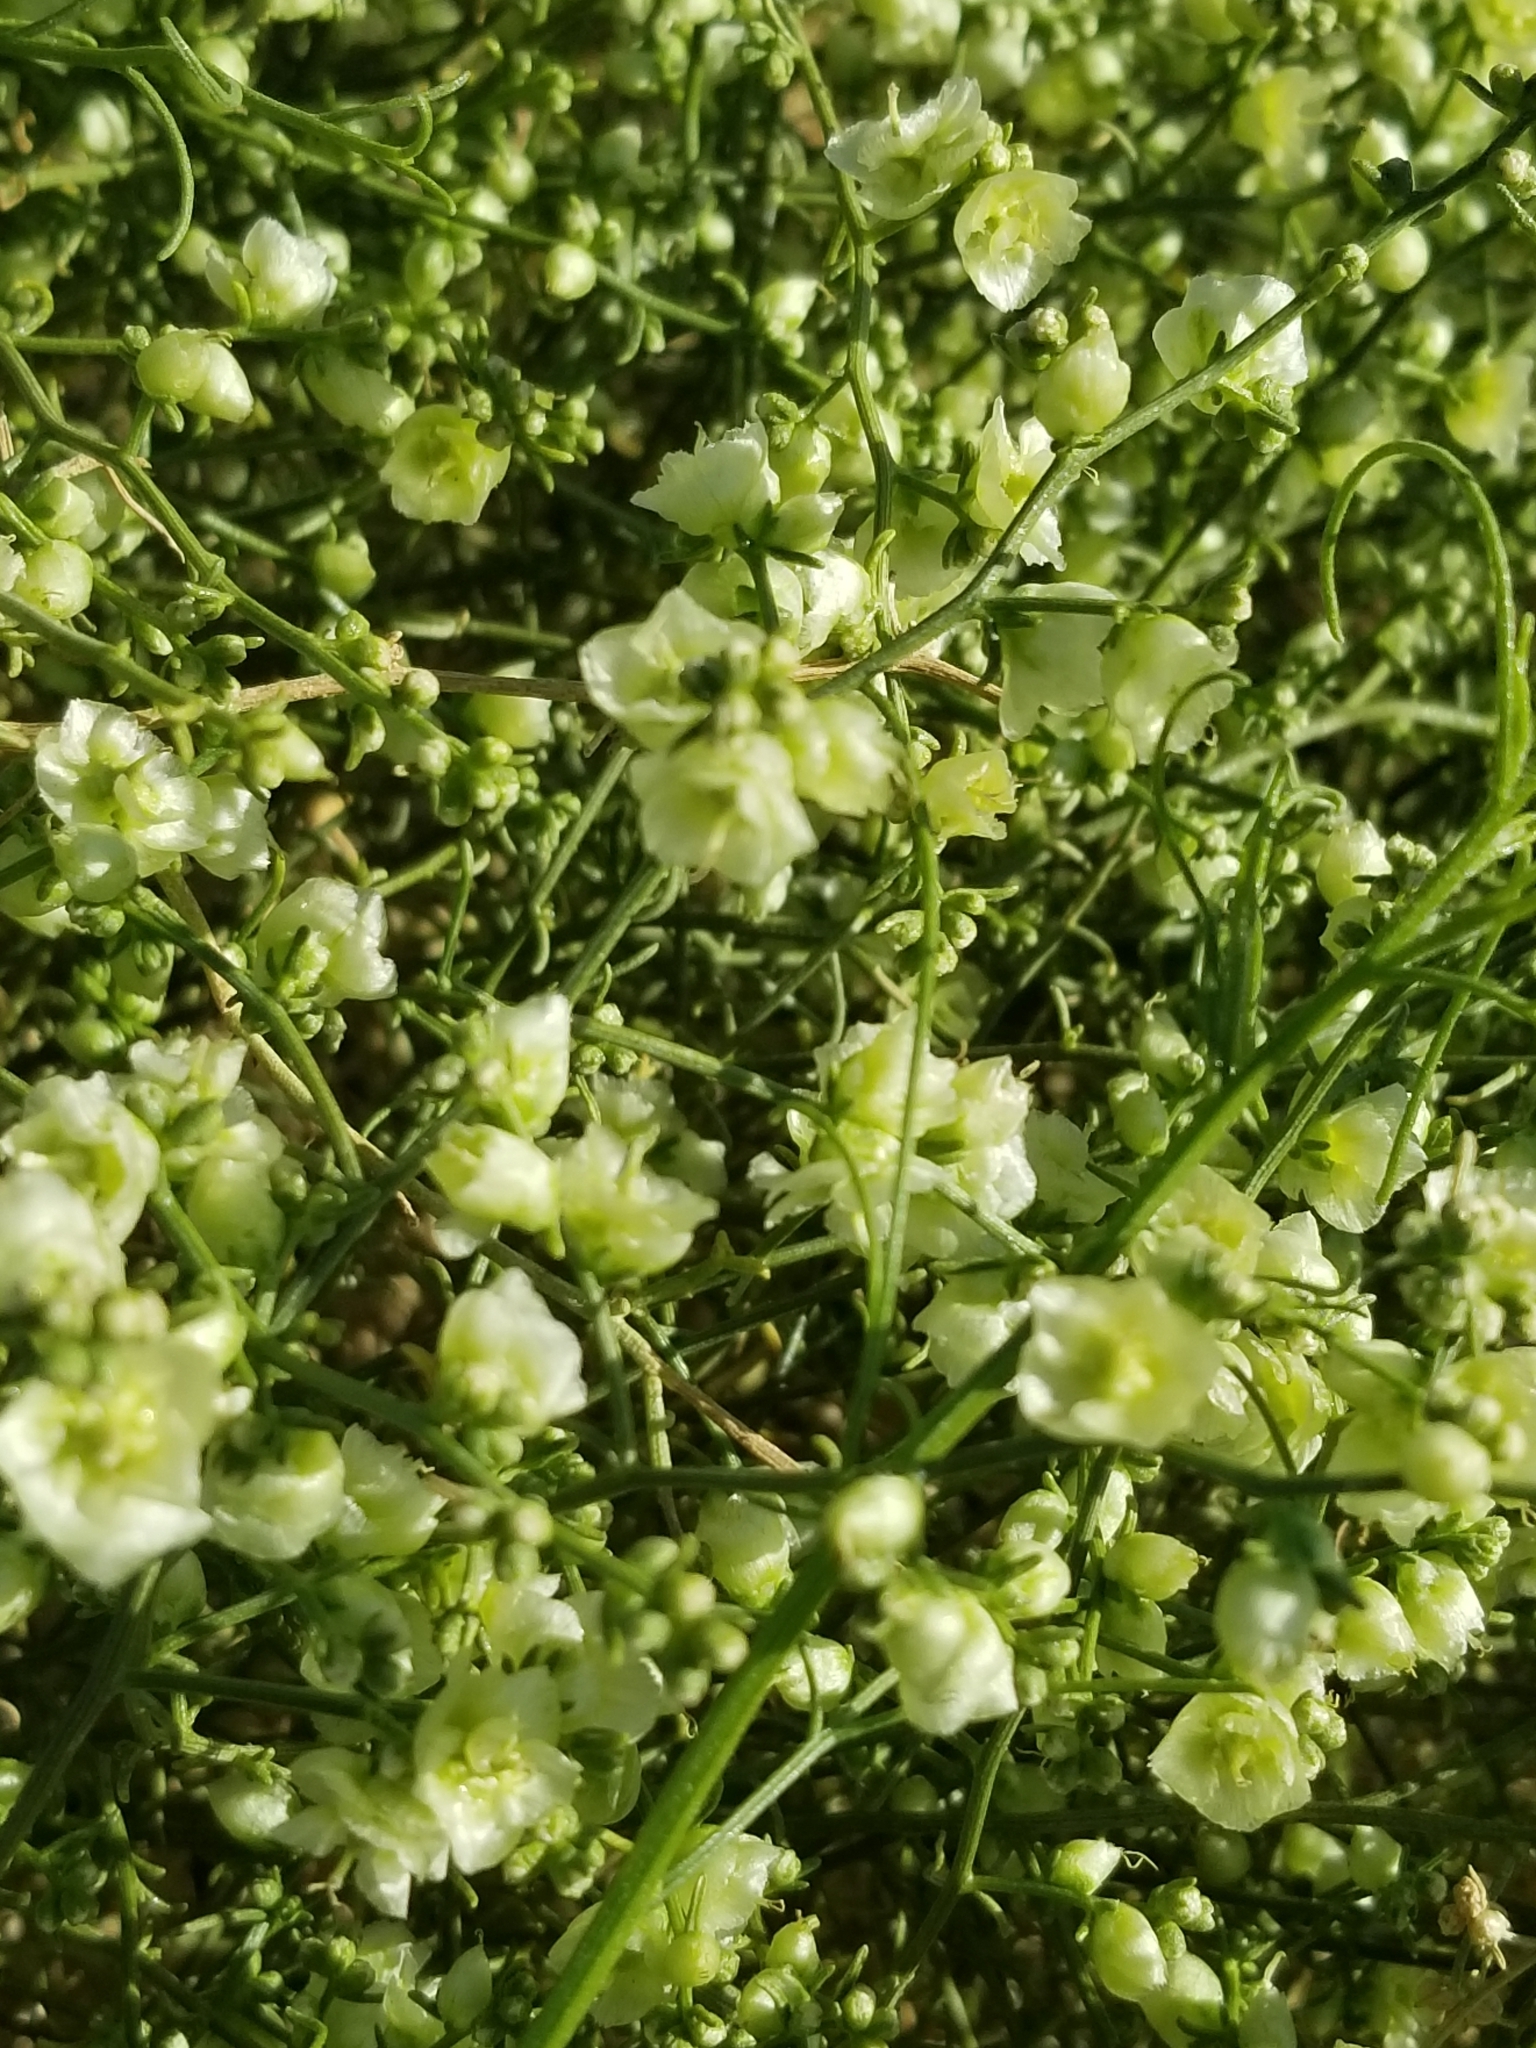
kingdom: Plantae
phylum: Tracheophyta
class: Magnoliopsida
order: Asterales
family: Asteraceae
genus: Ambrosia
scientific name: Ambrosia salsola
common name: Burrobrush
